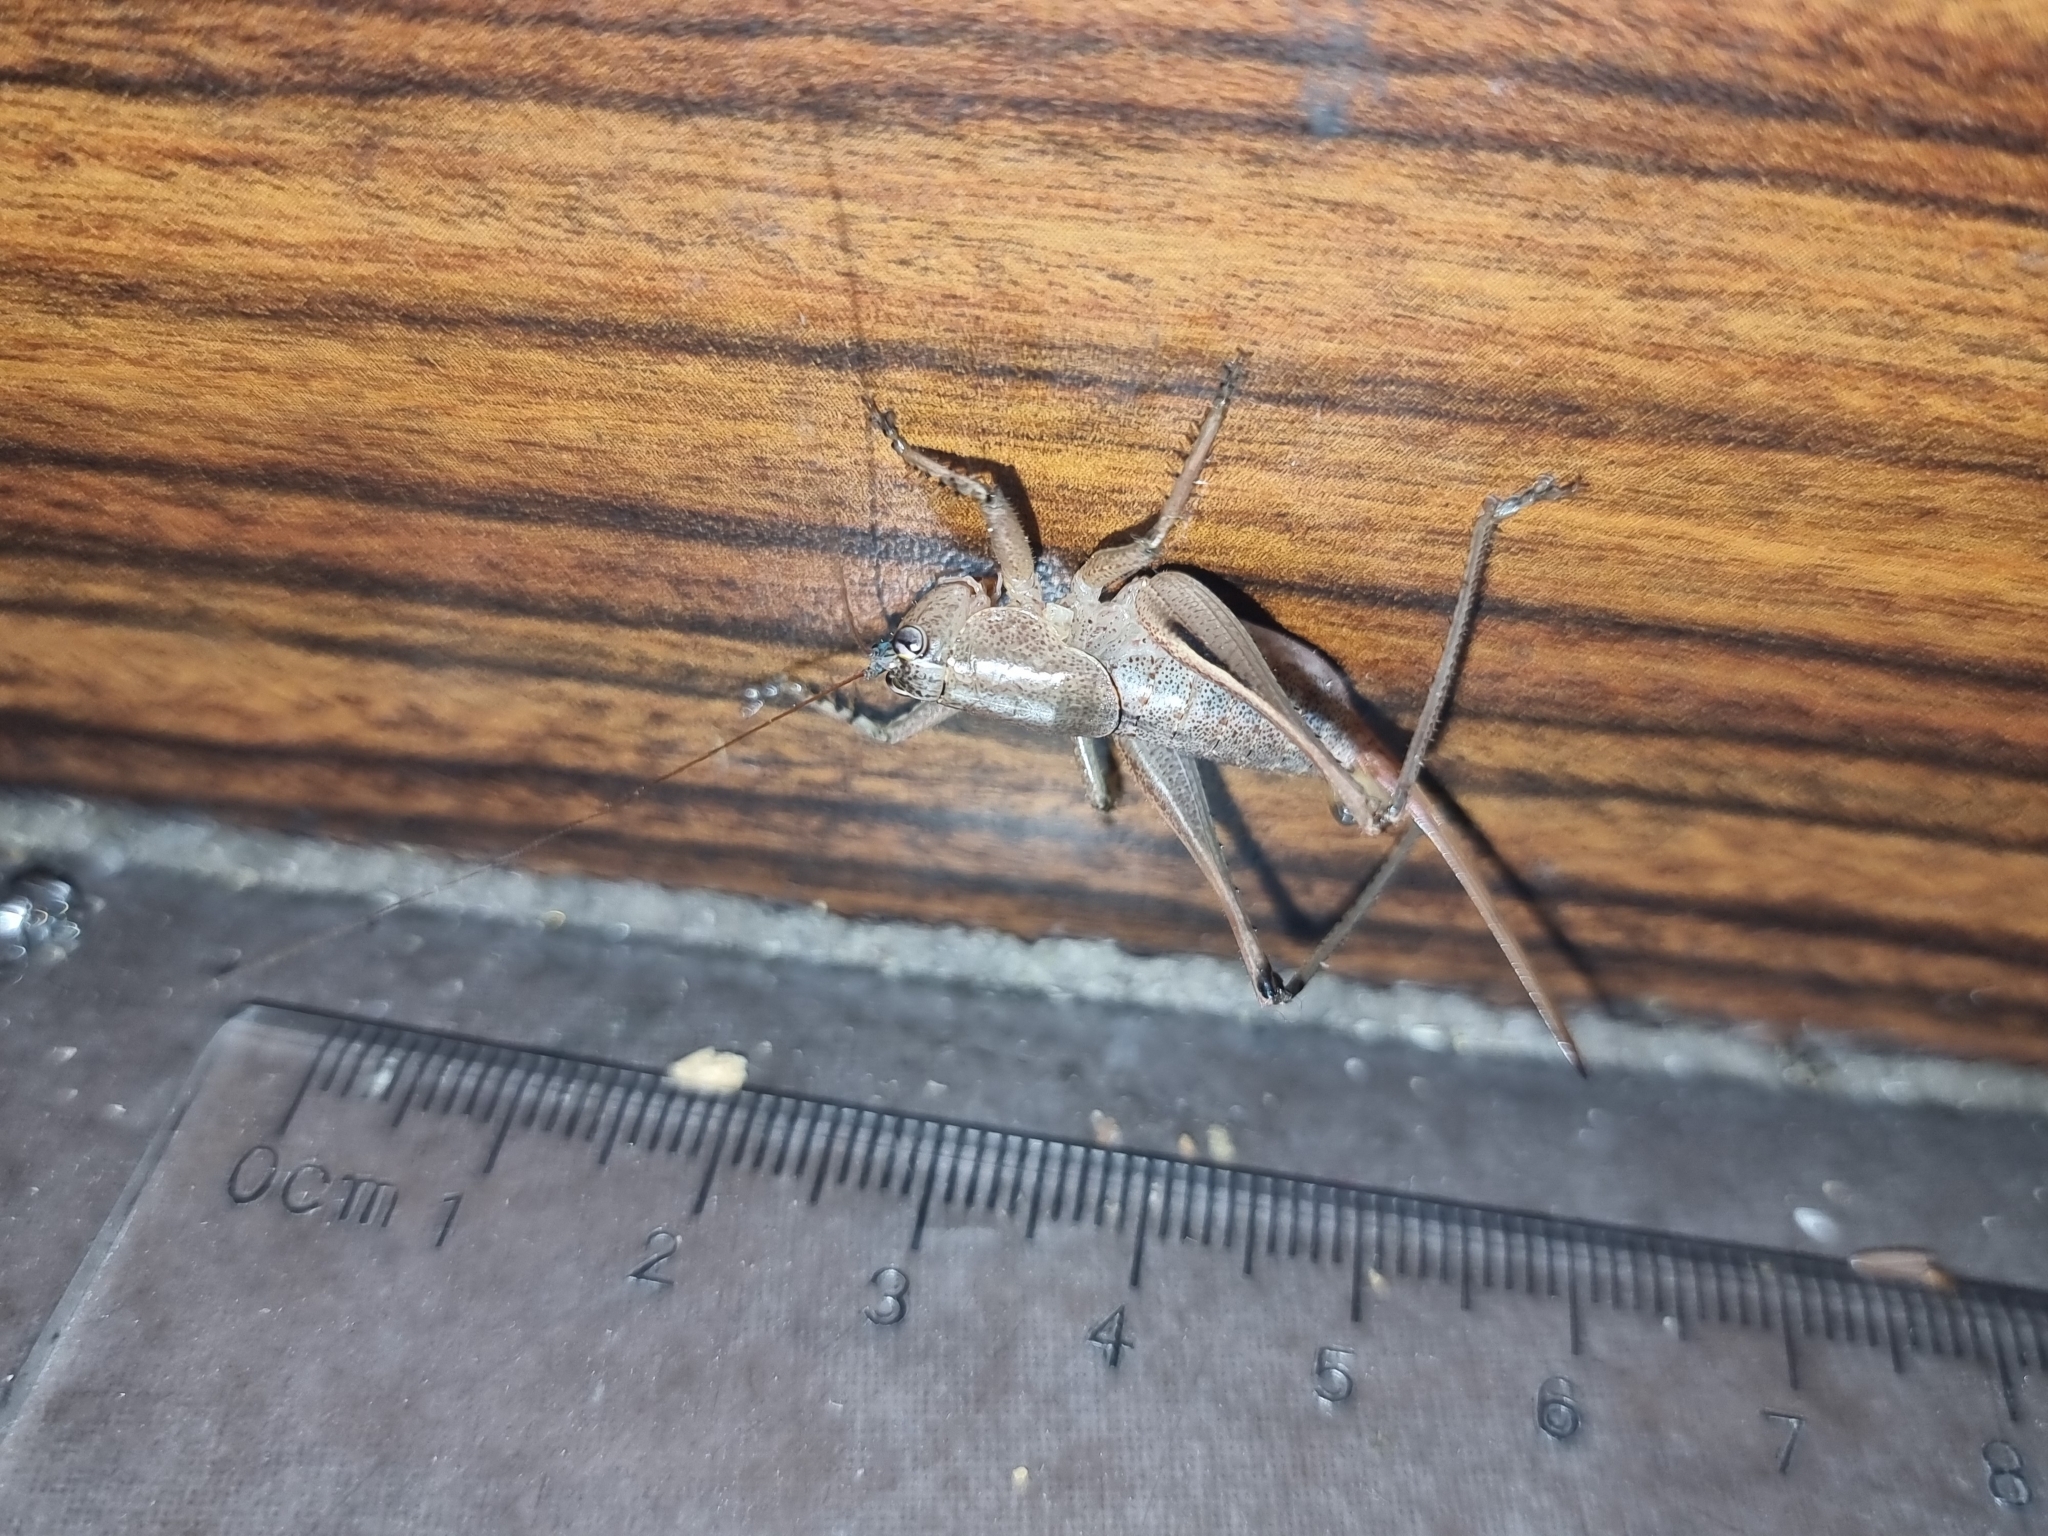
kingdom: Animalia
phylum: Arthropoda
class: Insecta
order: Orthoptera
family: Tettigoniidae
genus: Requena
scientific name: Requena verticalis
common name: Common western requena
